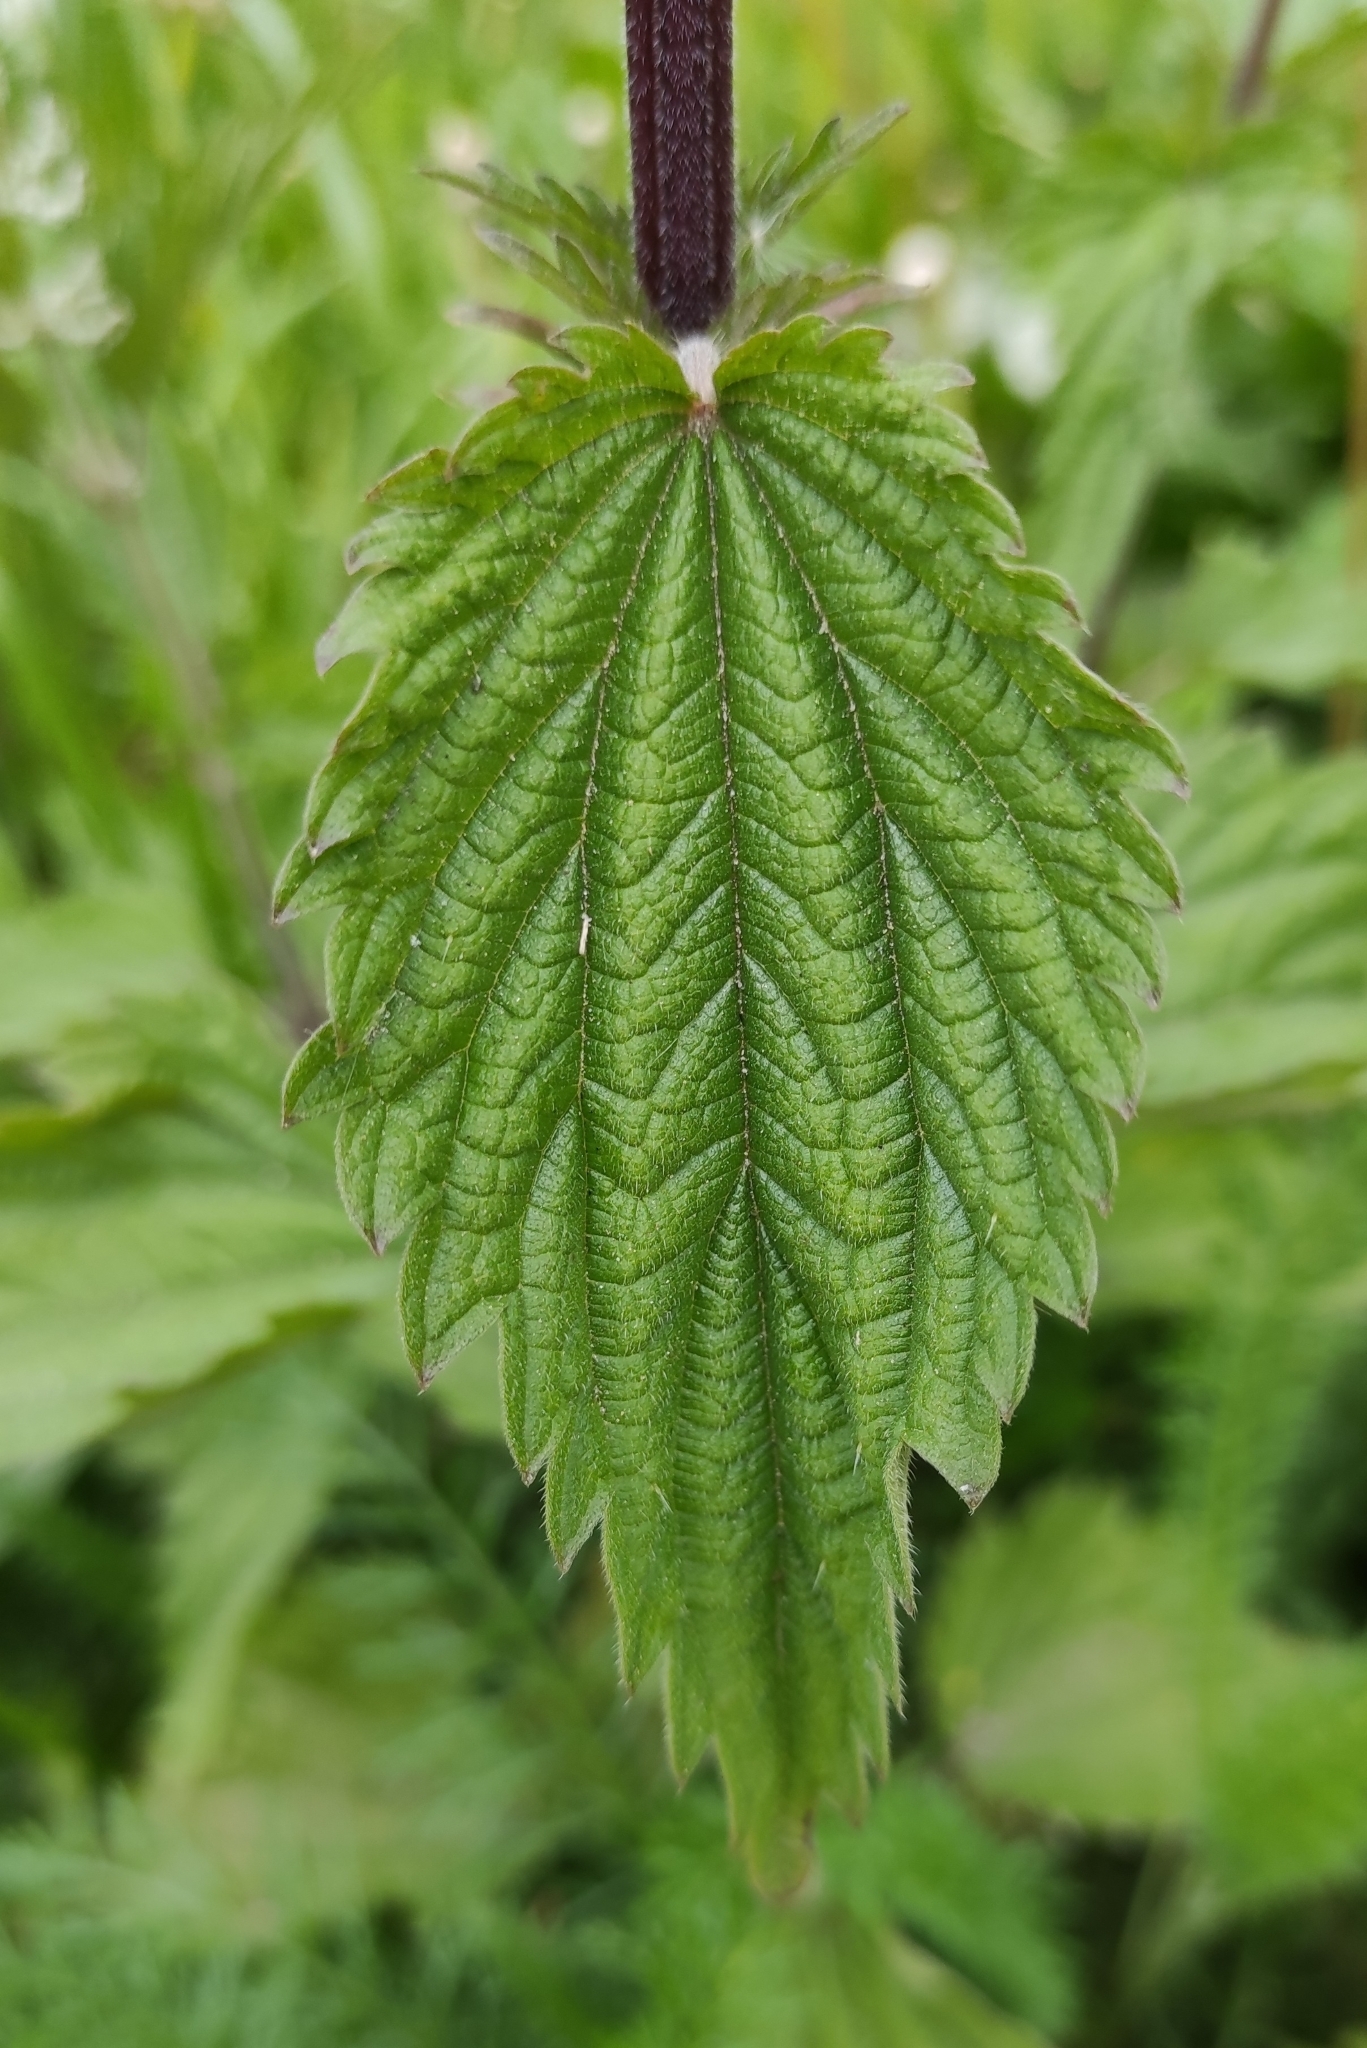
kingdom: Plantae
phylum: Tracheophyta
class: Magnoliopsida
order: Rosales
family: Urticaceae
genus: Urtica
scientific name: Urtica dioica
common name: Common nettle
